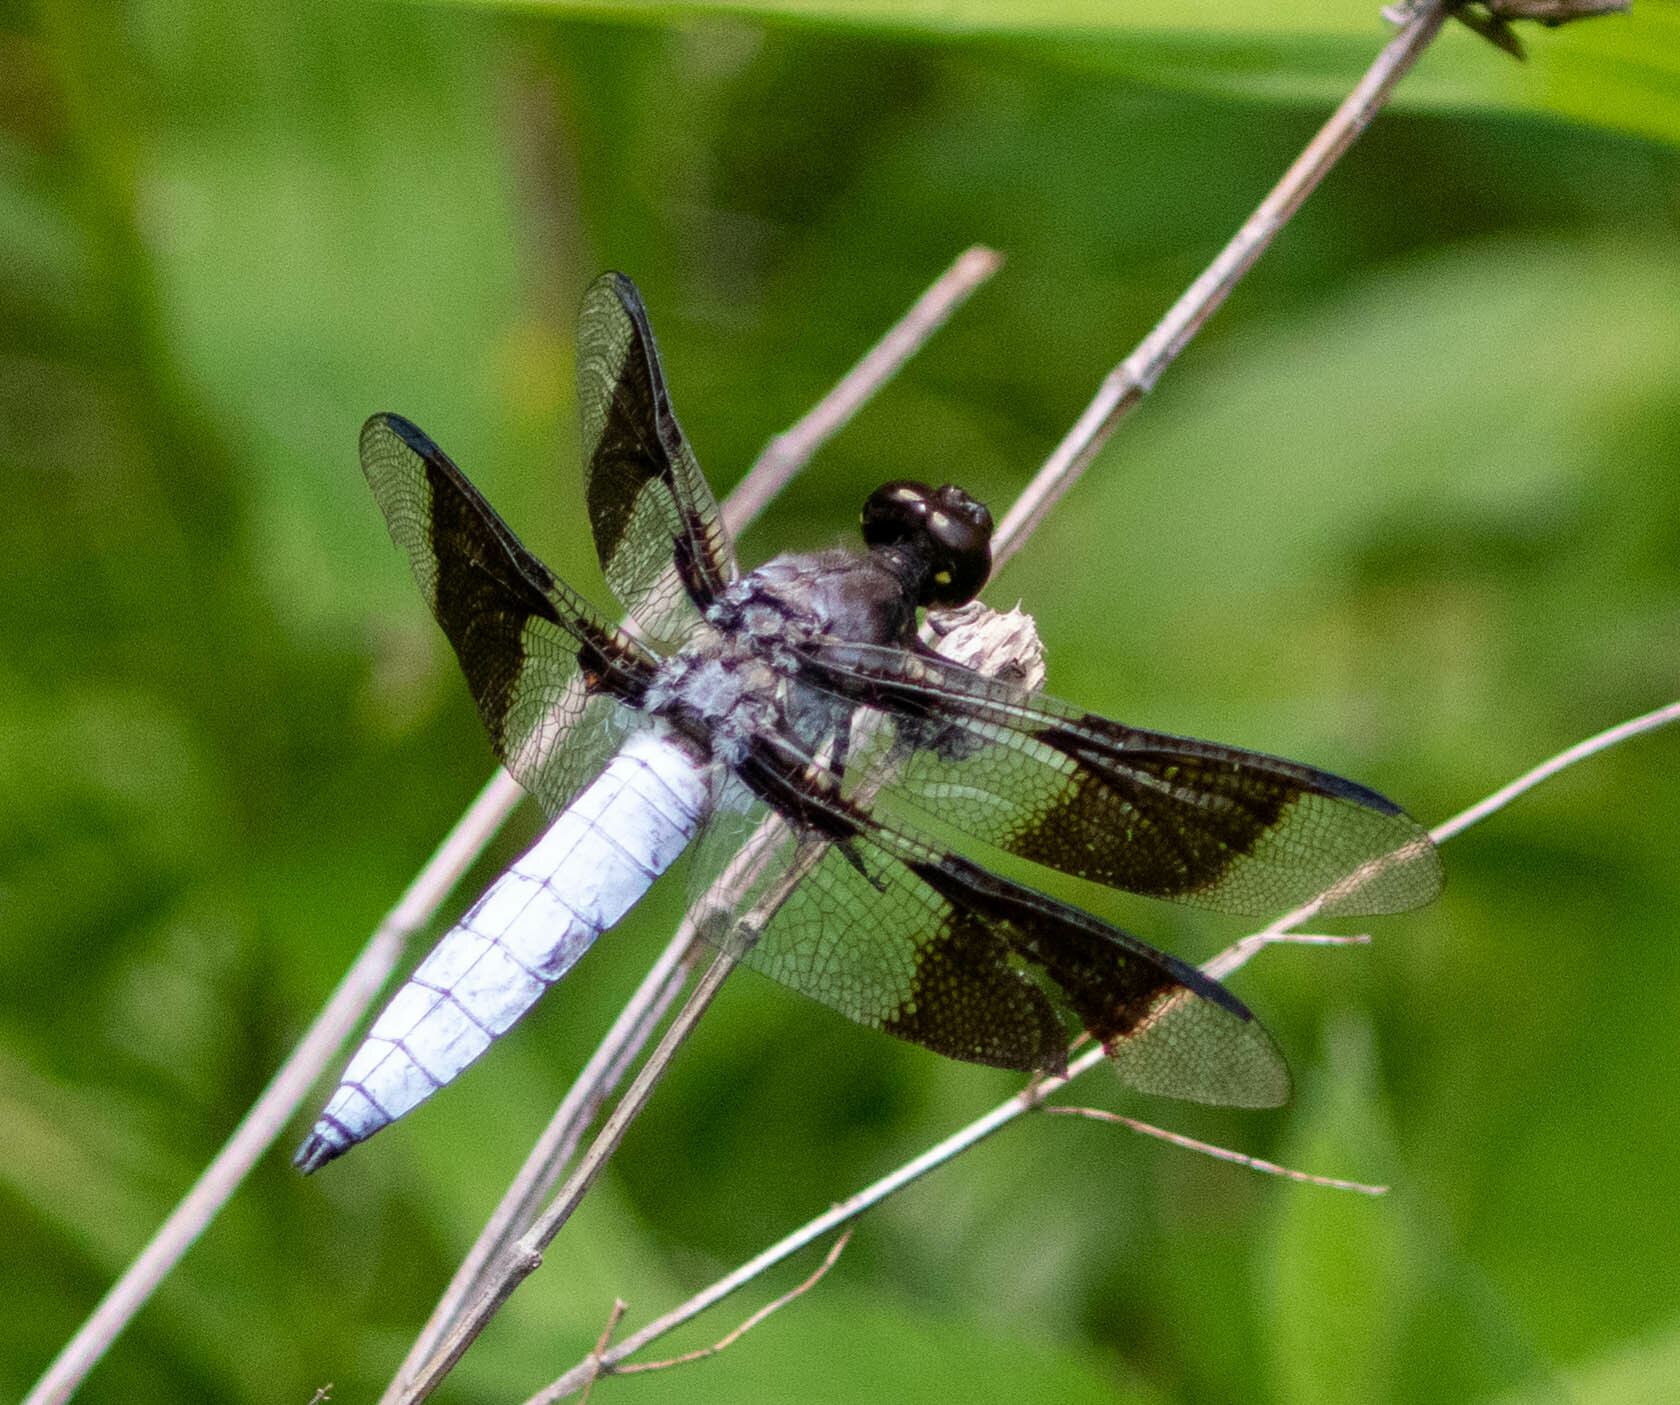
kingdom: Animalia
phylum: Arthropoda
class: Insecta
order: Odonata
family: Libellulidae
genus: Plathemis
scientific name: Plathemis lydia
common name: Common whitetail
